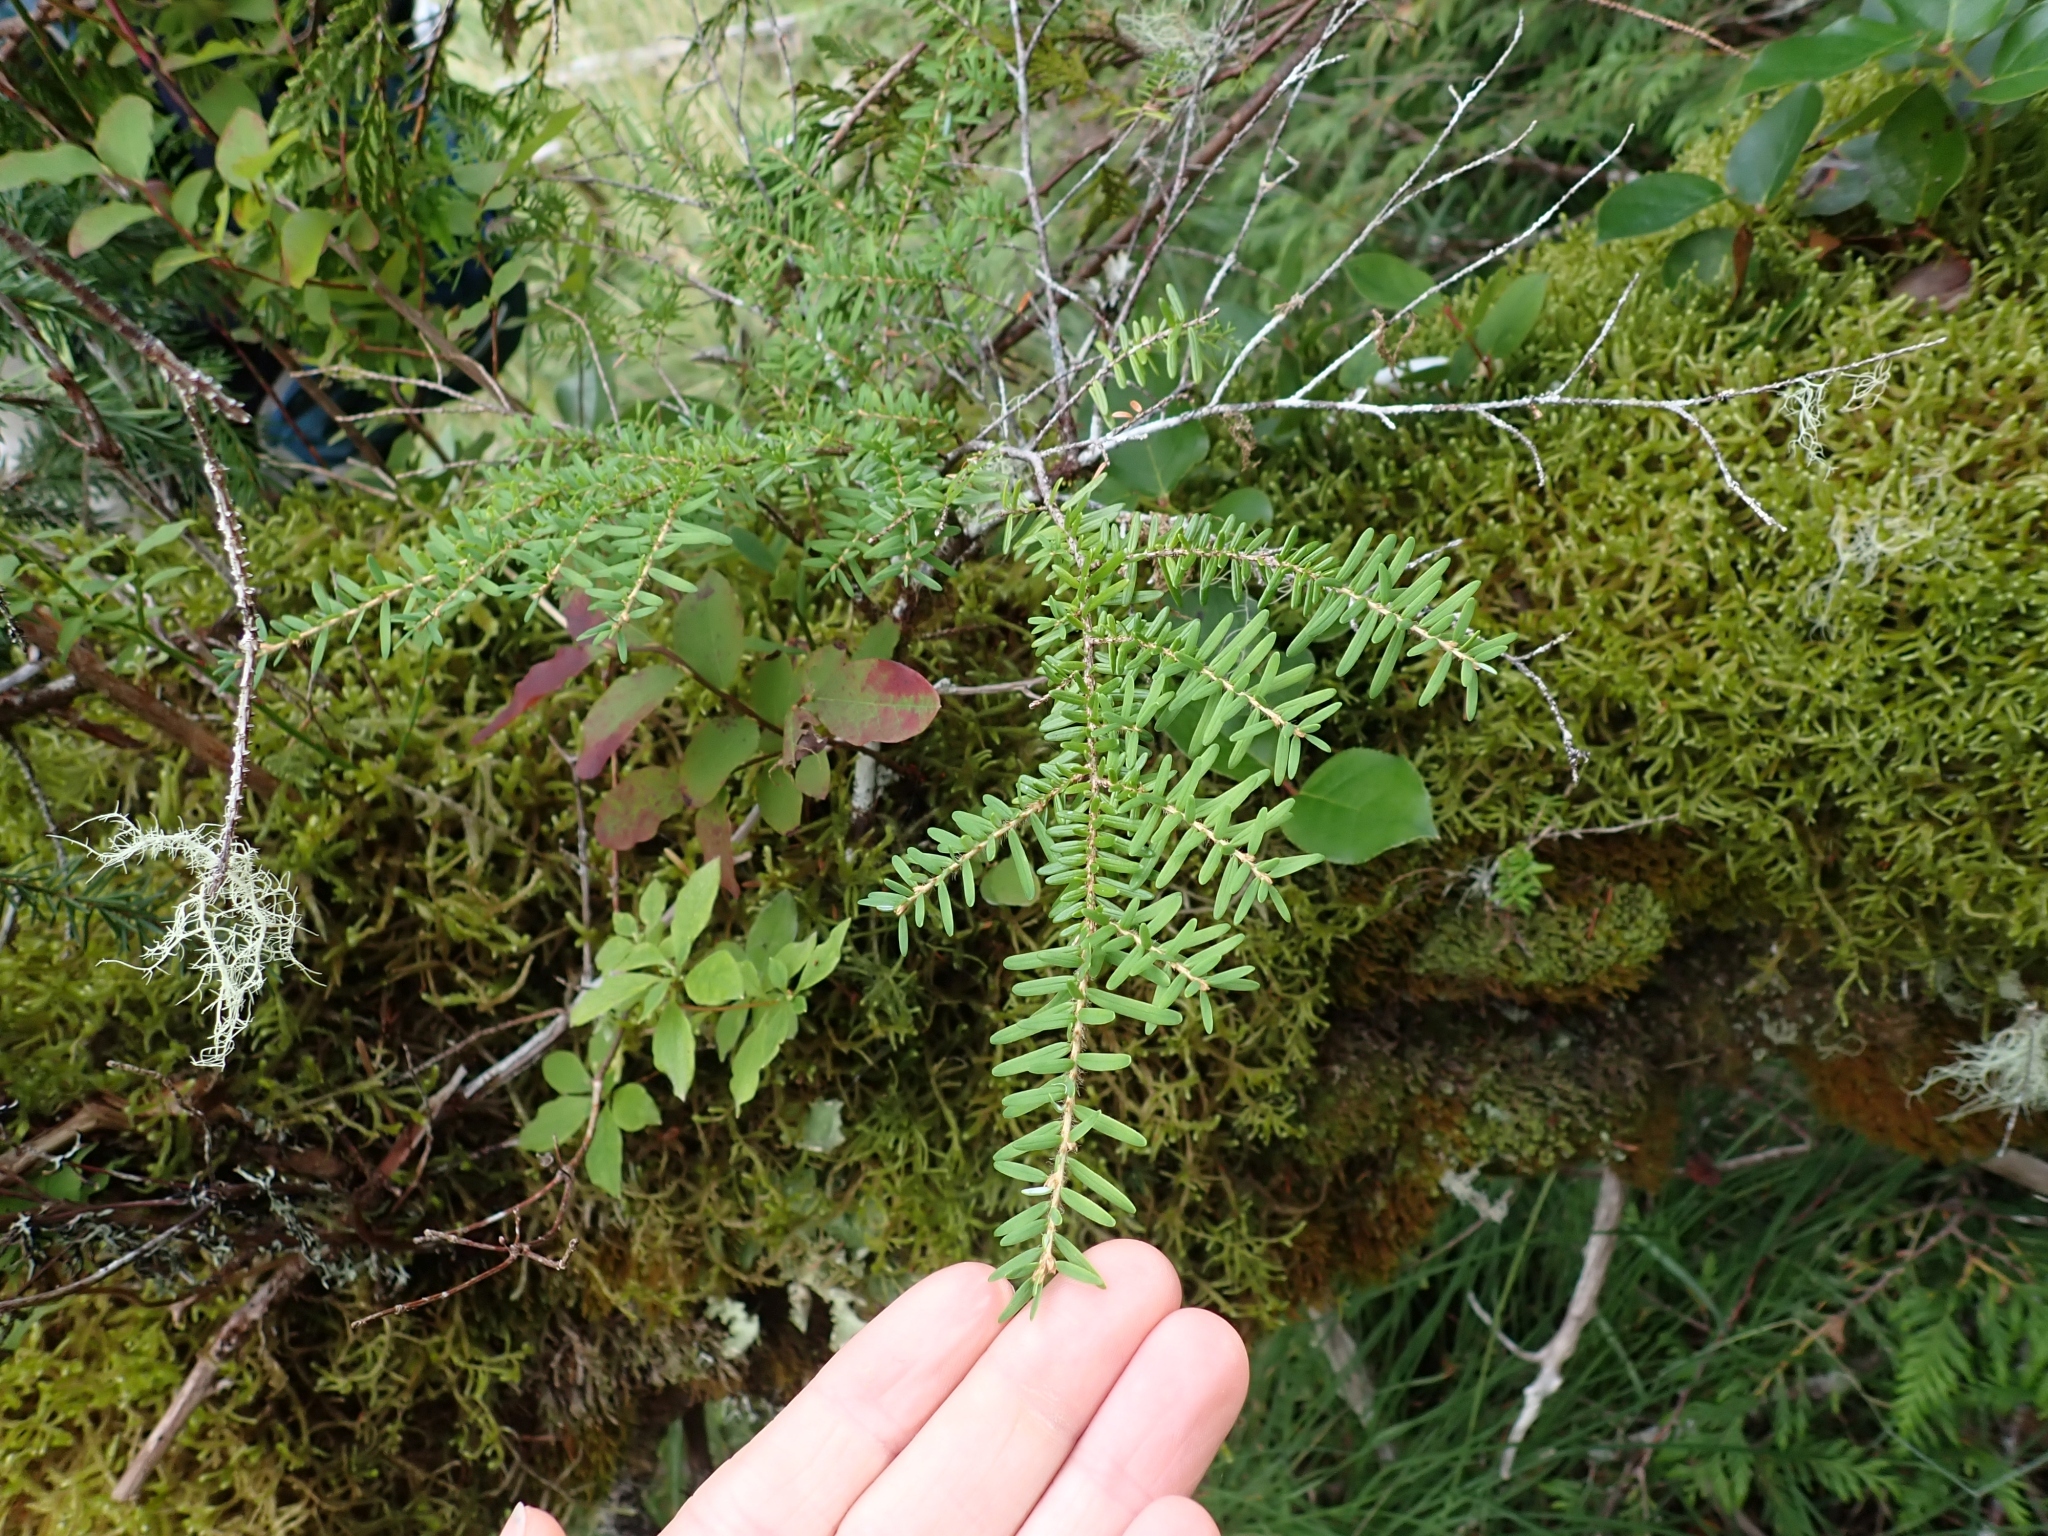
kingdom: Plantae
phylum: Tracheophyta
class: Pinopsida
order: Pinales
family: Pinaceae
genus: Tsuga
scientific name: Tsuga heterophylla
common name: Western hemlock
